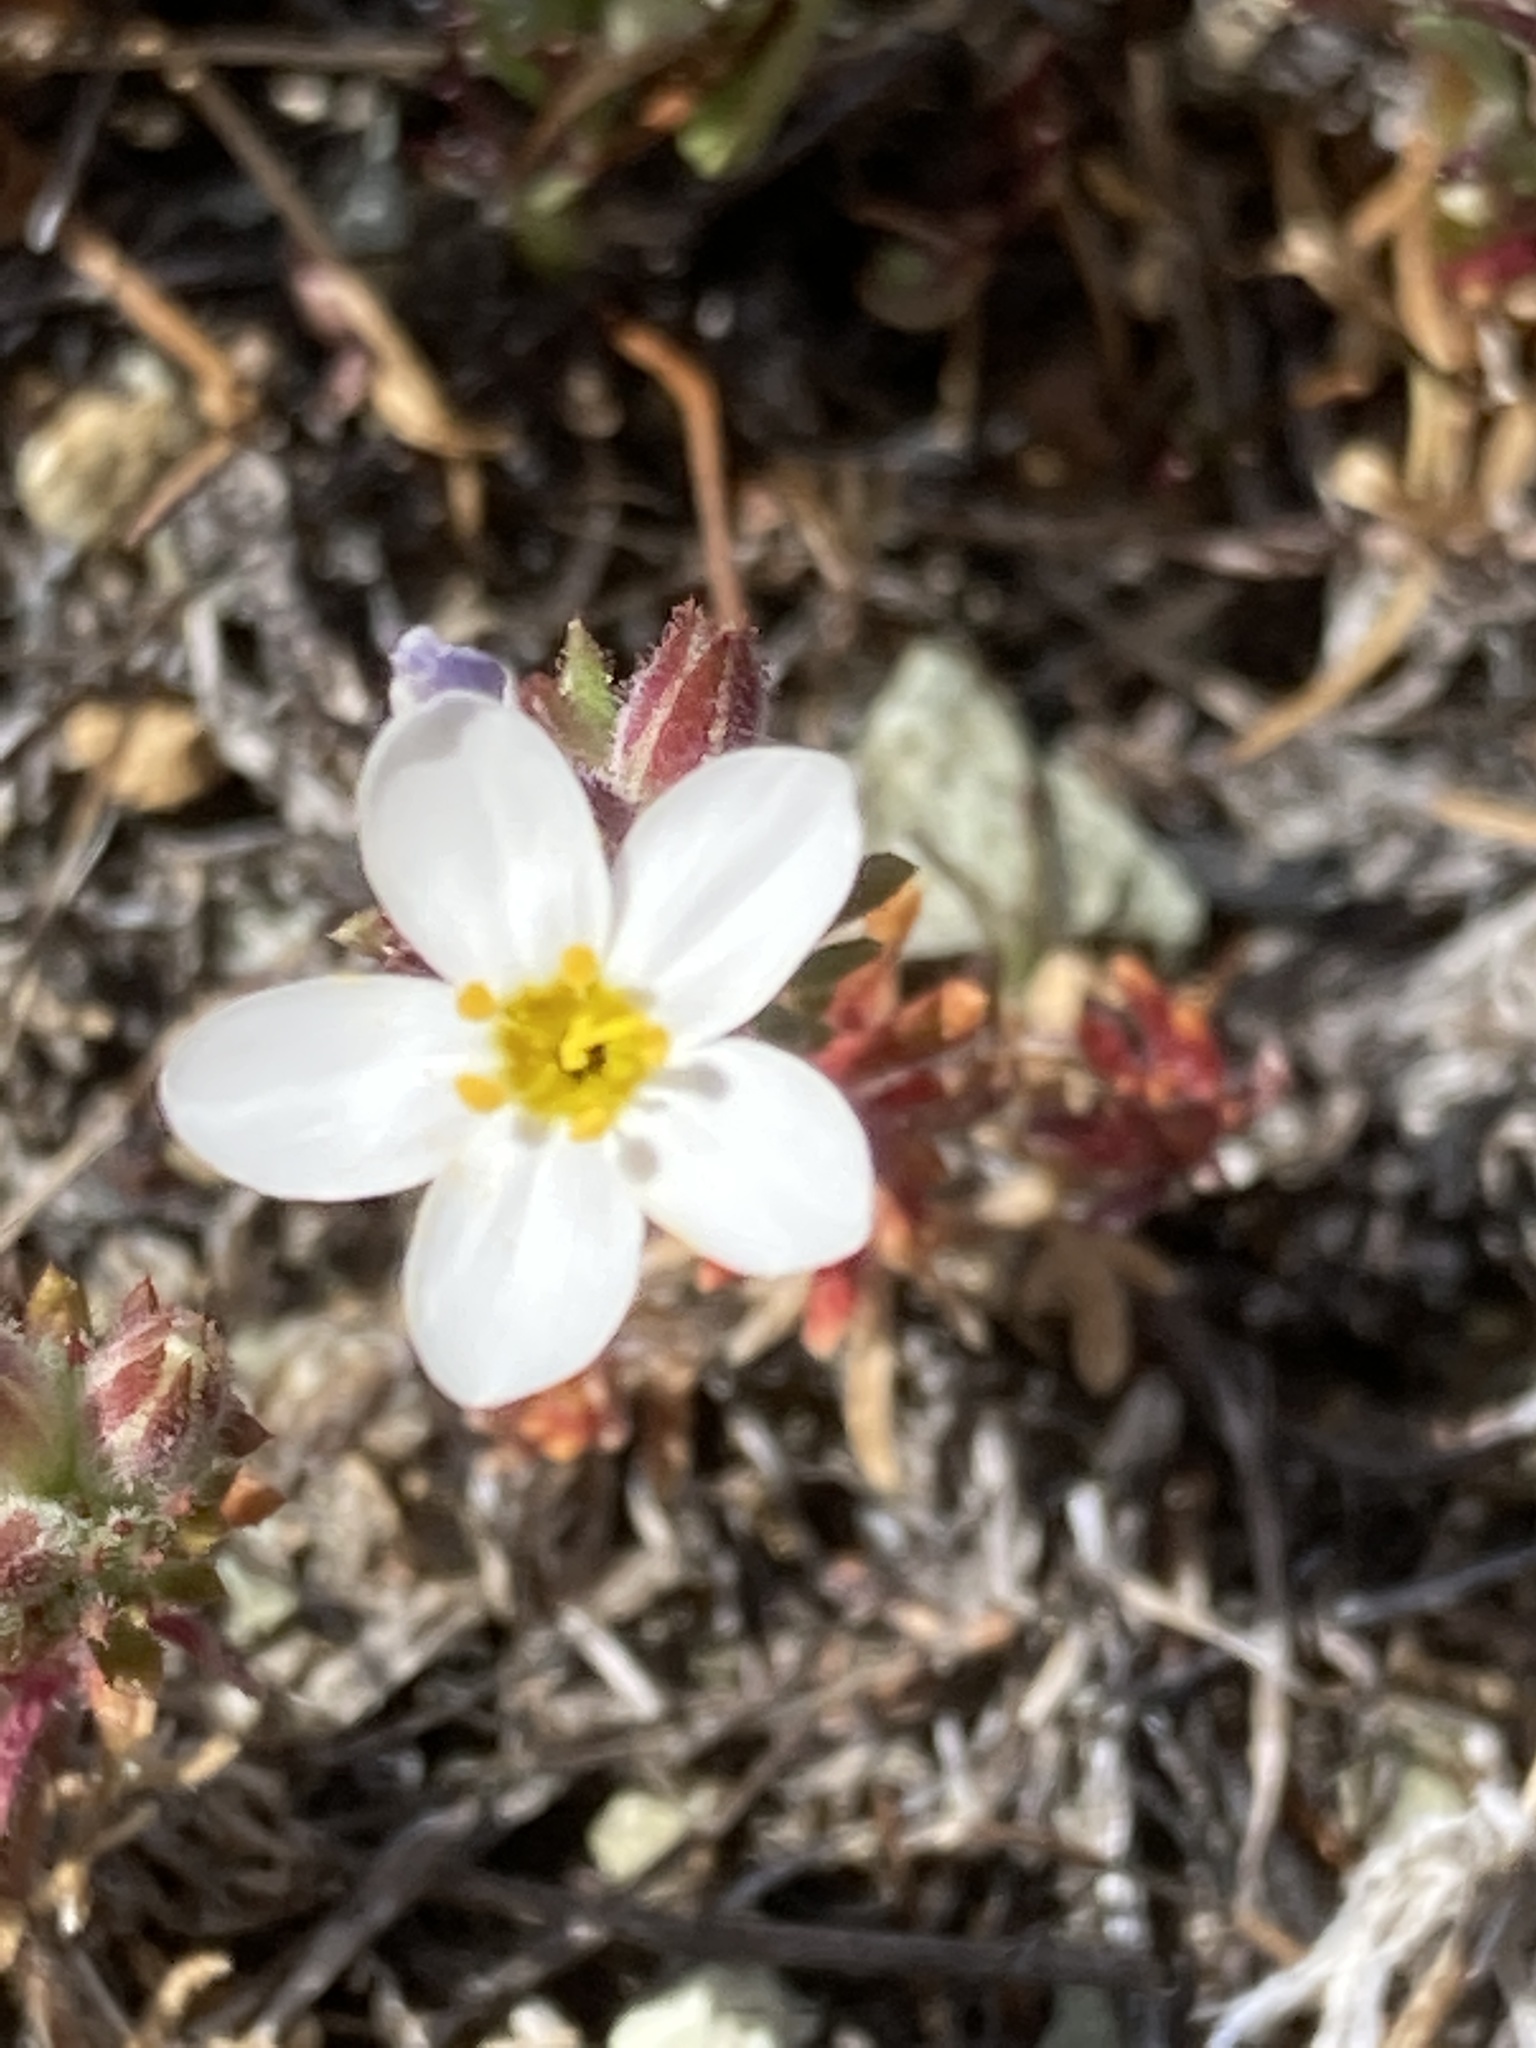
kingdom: Plantae
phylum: Tracheophyta
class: Magnoliopsida
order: Ericales
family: Polemoniaceae
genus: Leptosiphon
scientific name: Leptosiphon parviflorus
